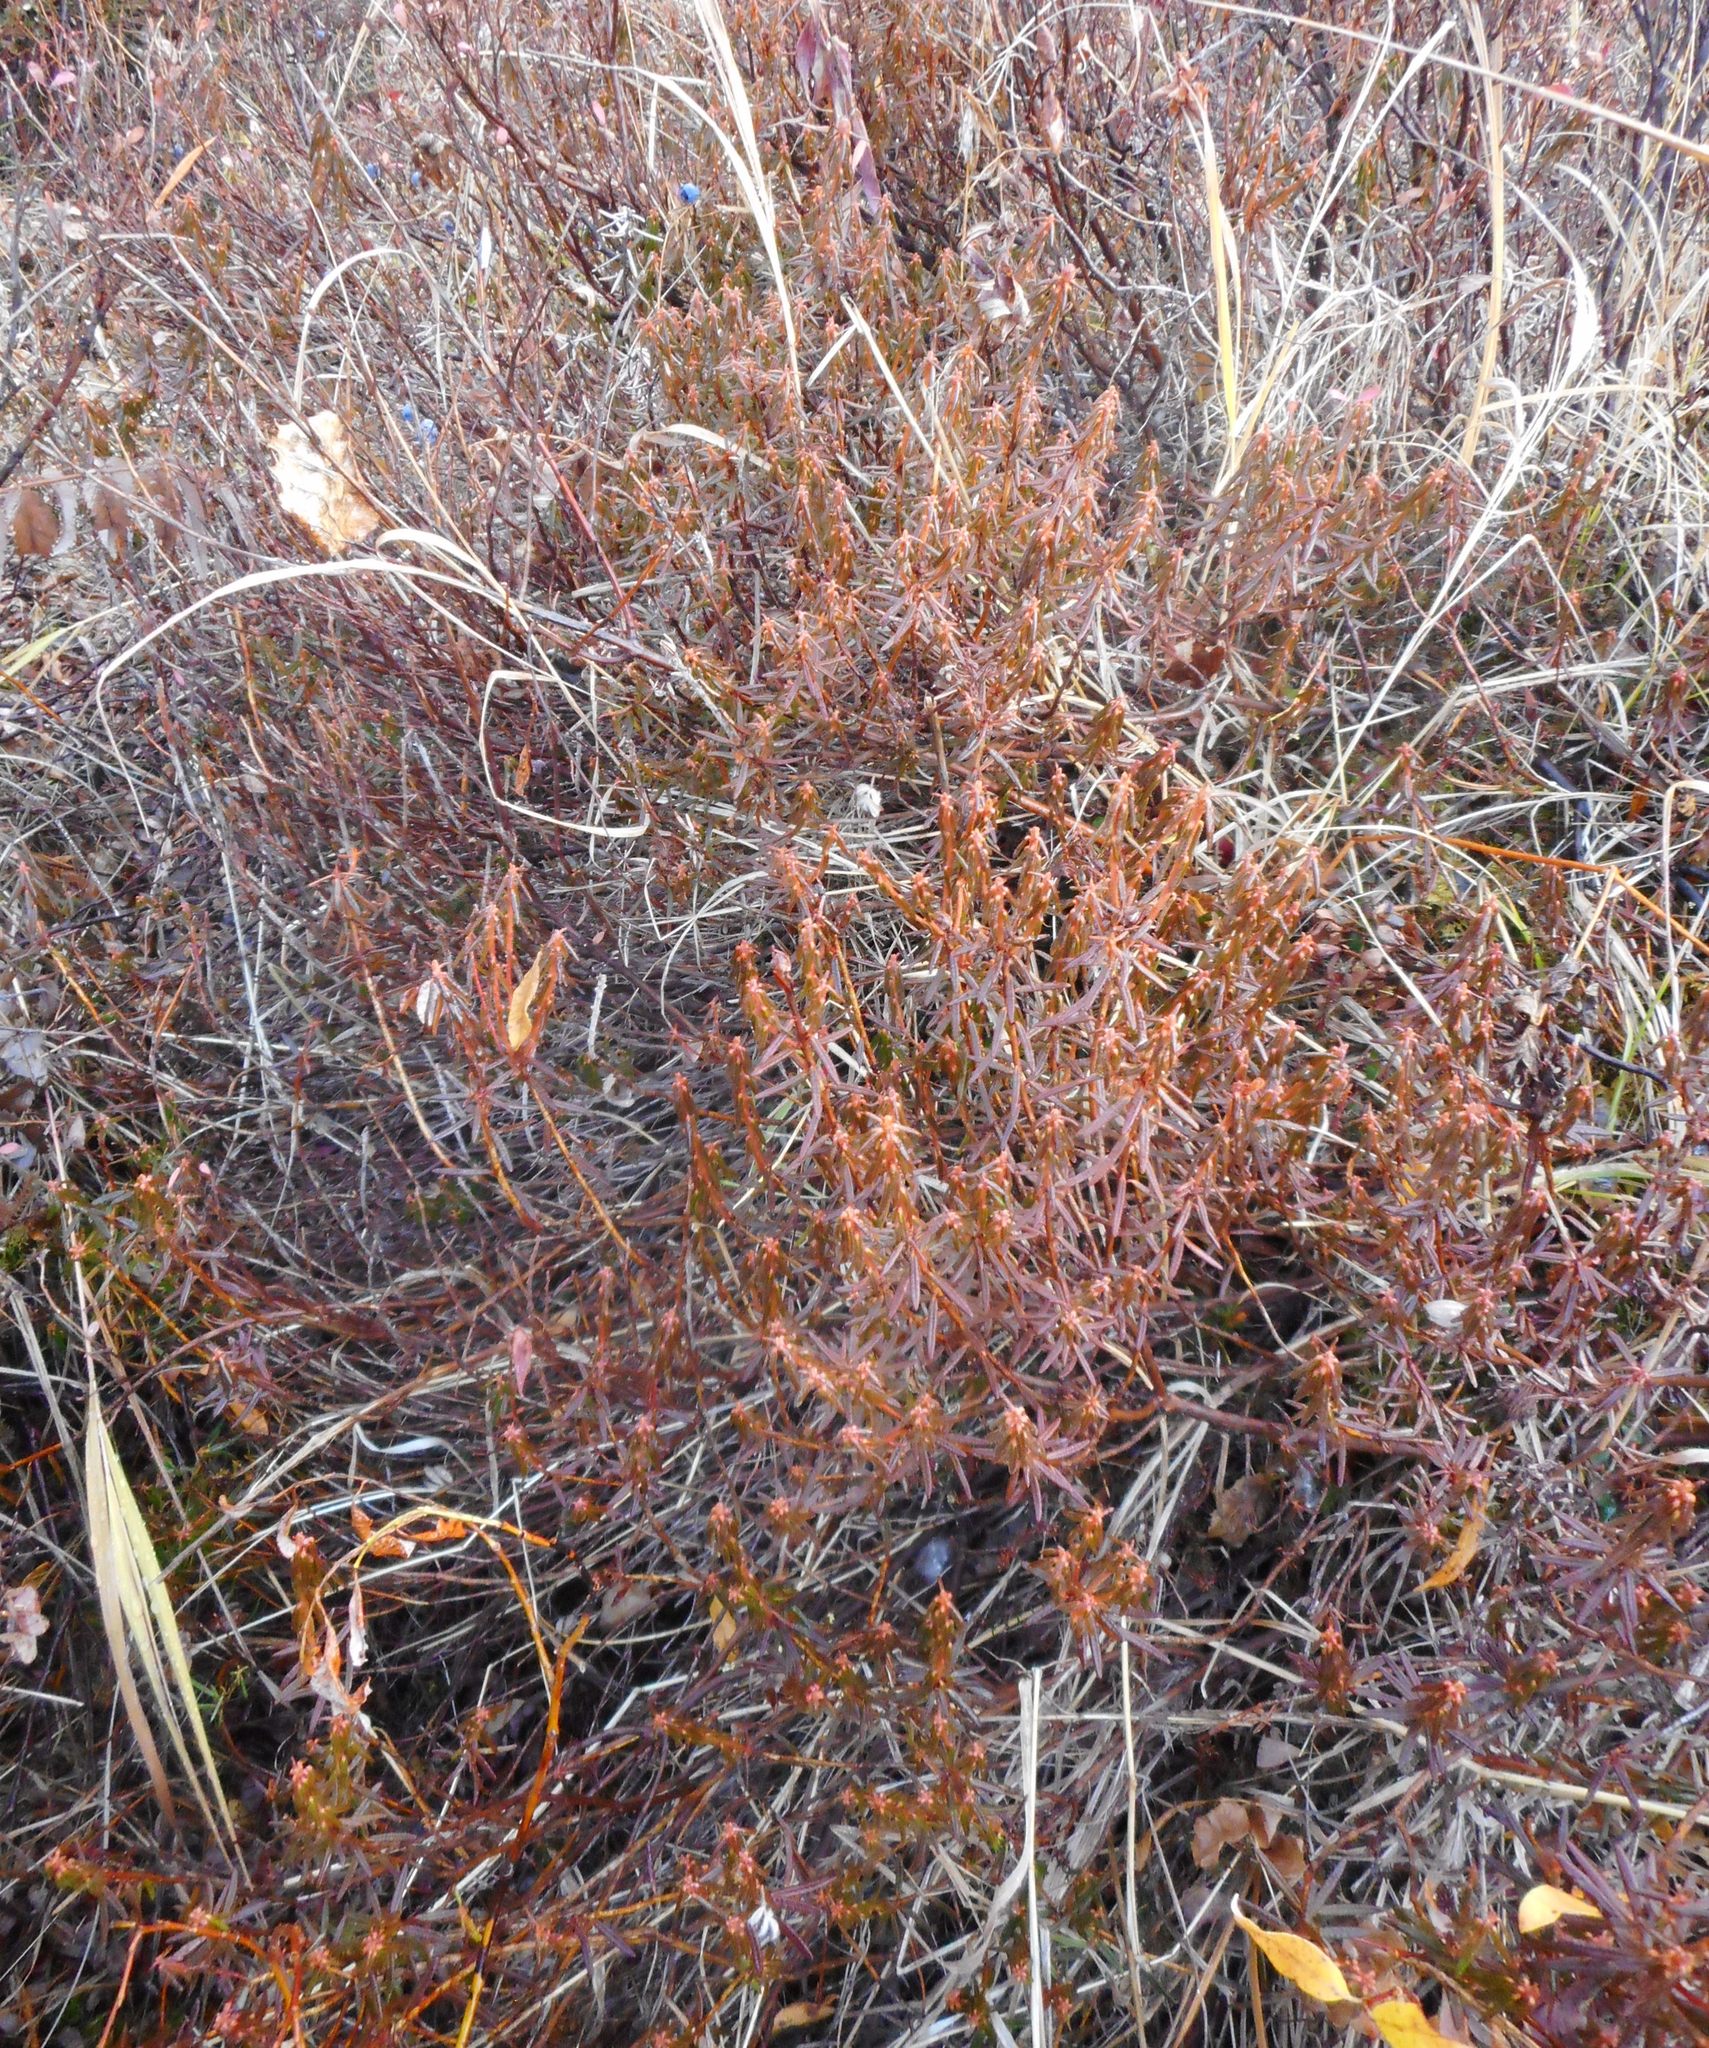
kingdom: Plantae
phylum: Tracheophyta
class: Magnoliopsida
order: Ericales
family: Ericaceae
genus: Rhododendron
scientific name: Rhododendron tomentosum
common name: Marsh labrador tea
